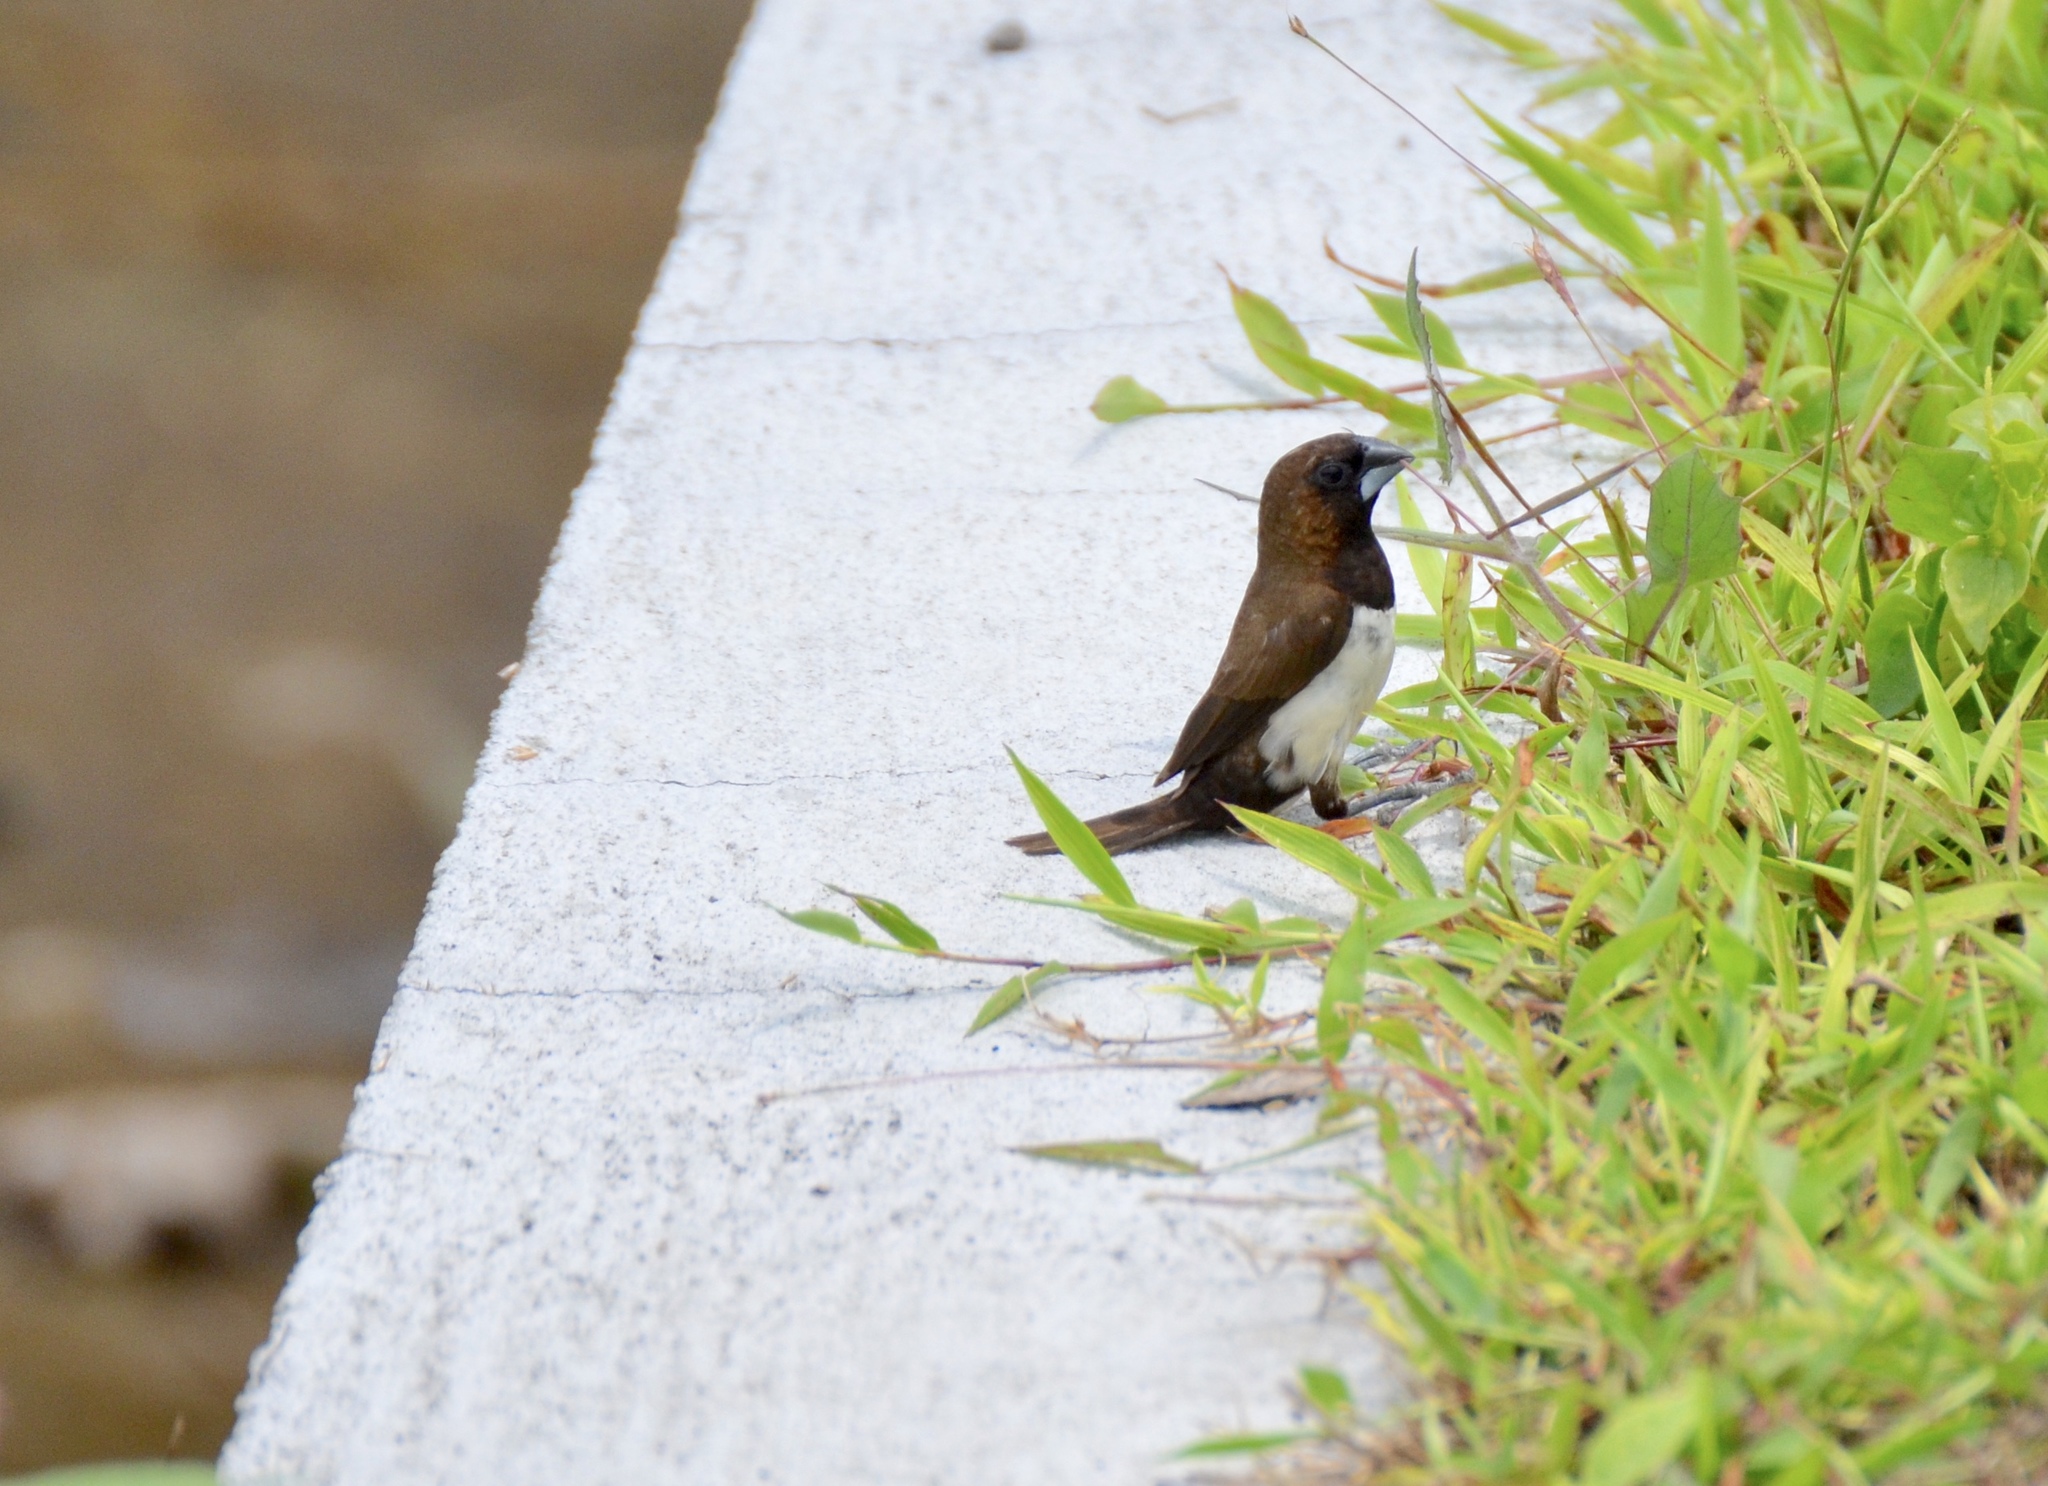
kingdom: Animalia
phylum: Chordata
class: Aves
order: Passeriformes
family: Estrildidae
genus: Lonchura
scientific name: Lonchura leucogastroides
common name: Javan munia
